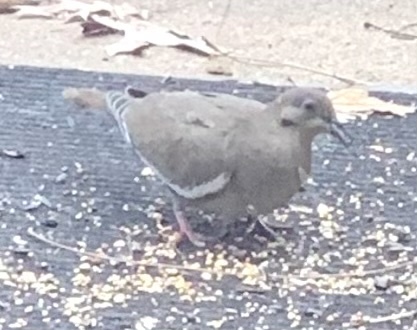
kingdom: Animalia
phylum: Chordata
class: Aves
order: Columbiformes
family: Columbidae
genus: Zenaida
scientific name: Zenaida asiatica
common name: White-winged dove
